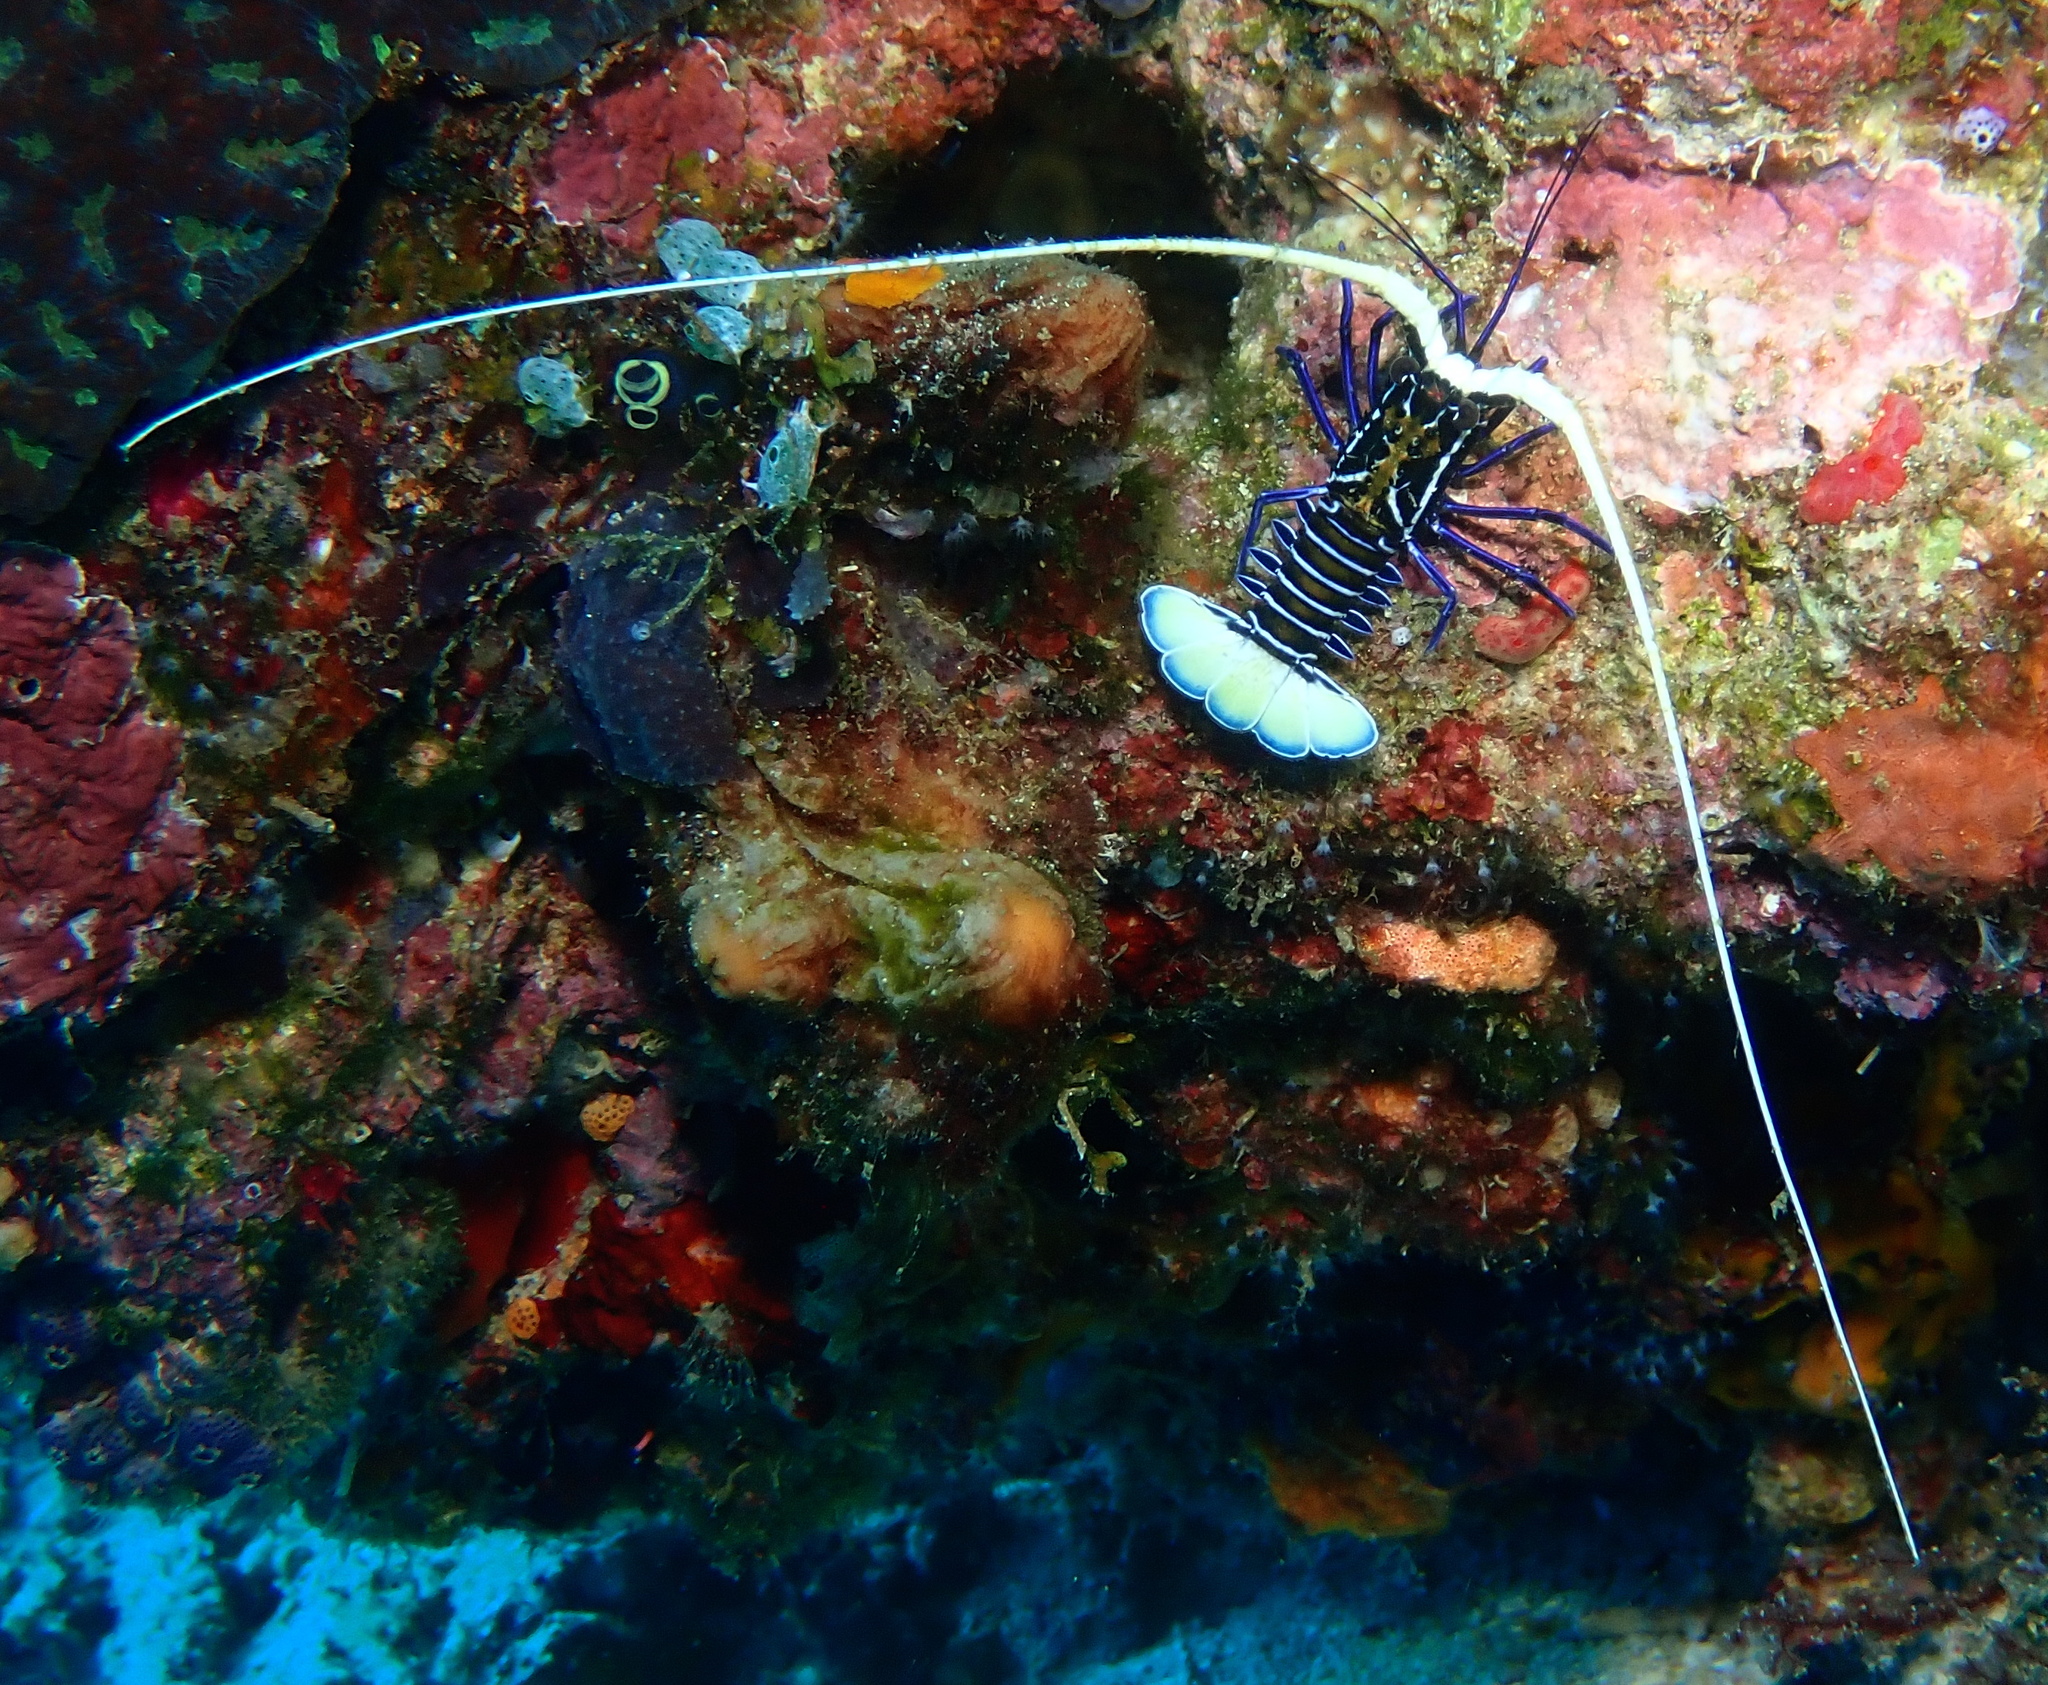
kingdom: Animalia
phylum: Arthropoda
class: Malacostraca
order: Decapoda
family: Palinuridae
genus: Panulirus
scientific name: Panulirus versicolor
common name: Painted spiny lobster
